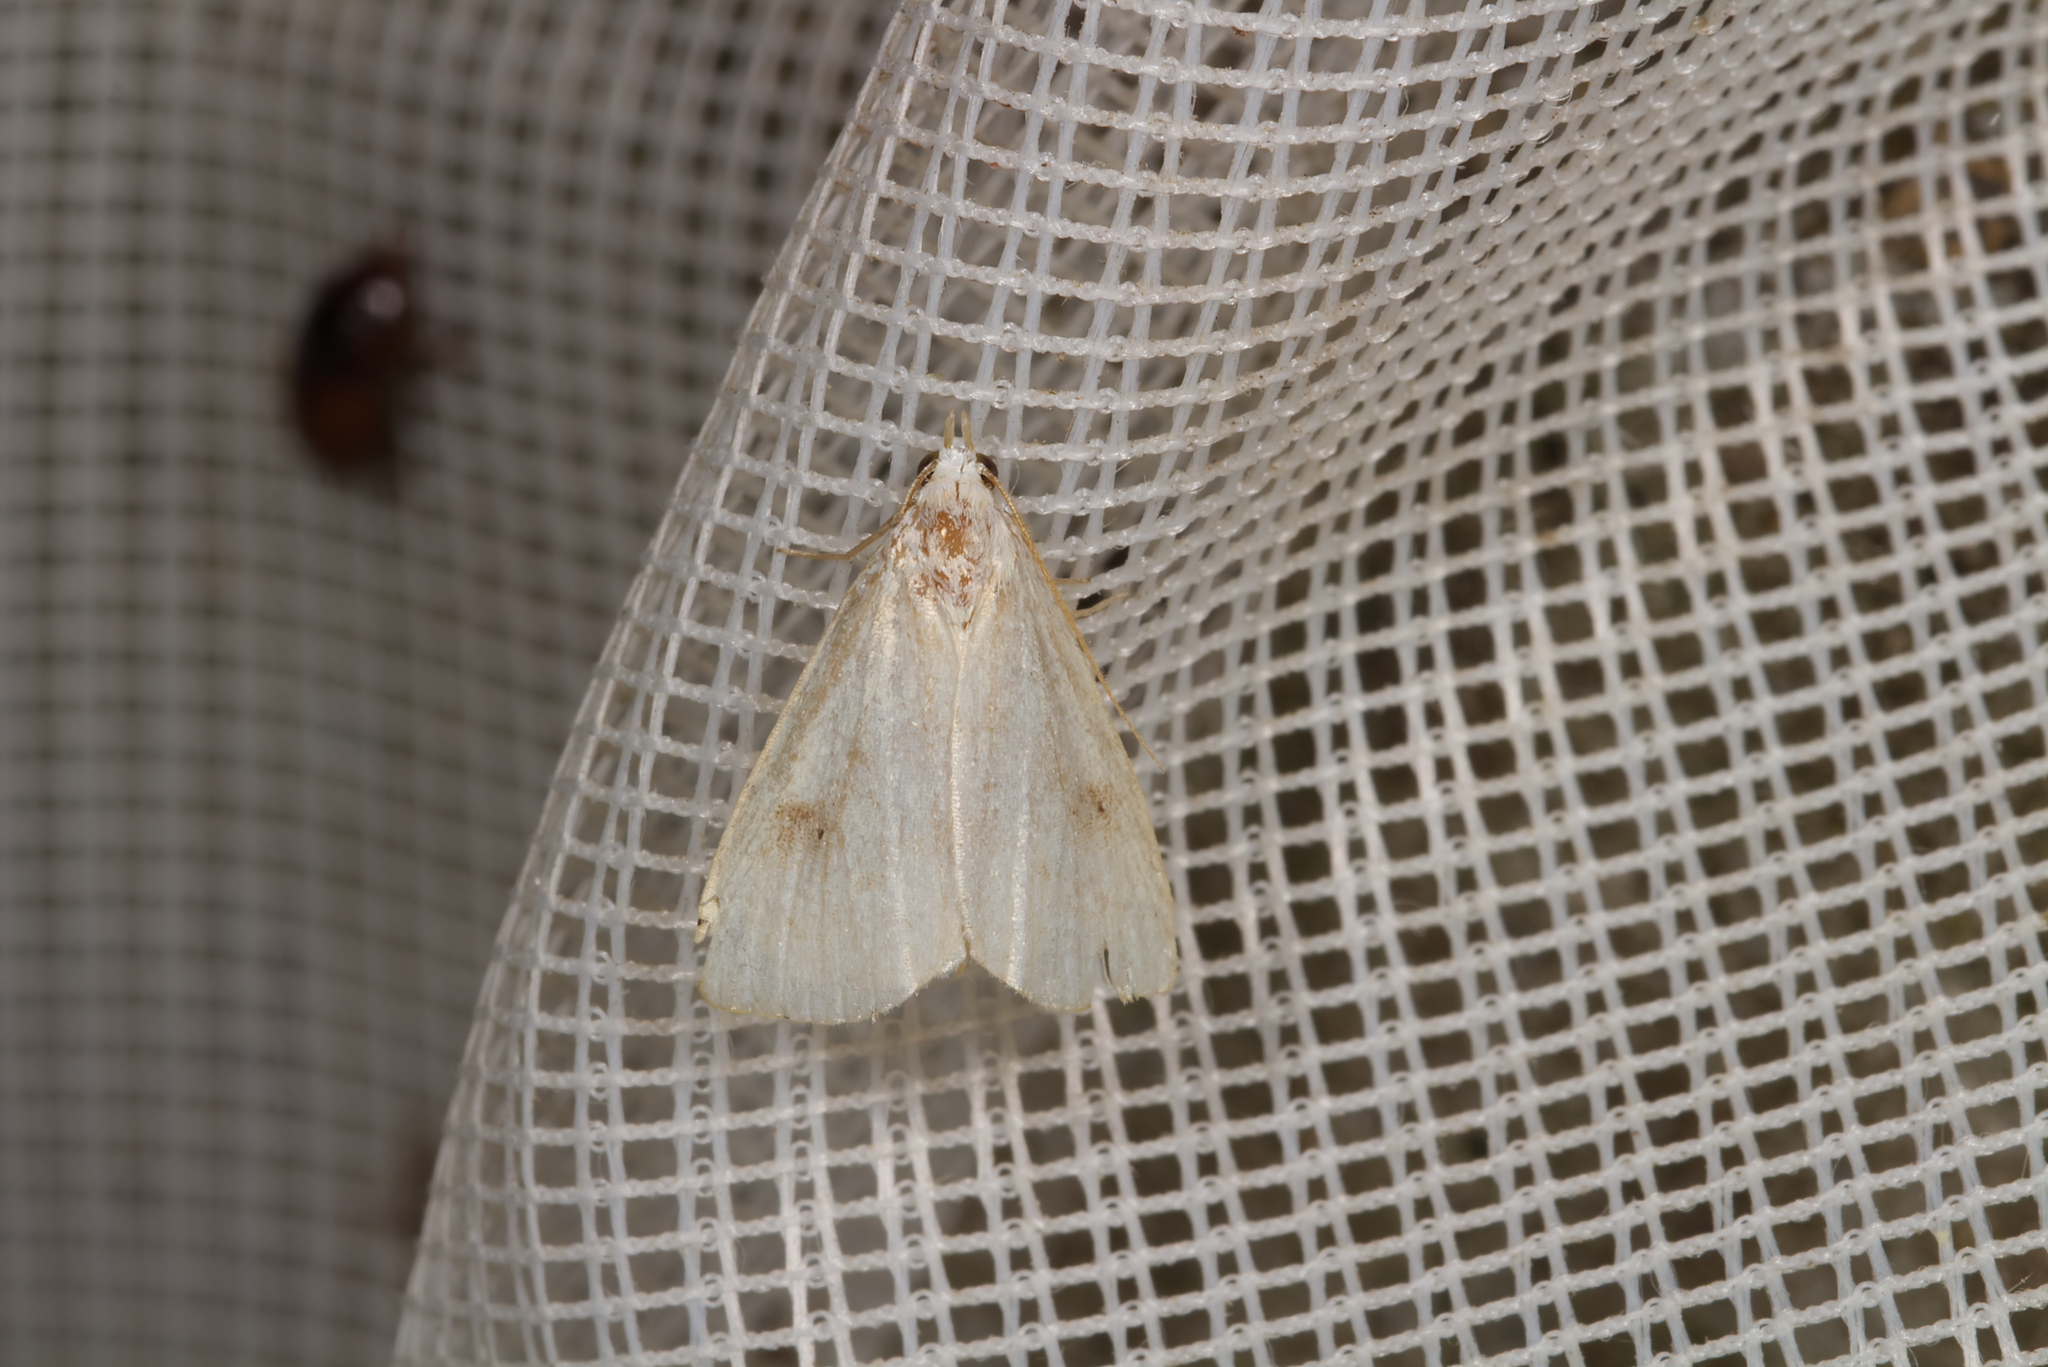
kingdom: Animalia
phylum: Arthropoda
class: Insecta
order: Lepidoptera
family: Erebidae
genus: Rivula
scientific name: Rivula sericealis
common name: Straw dot
